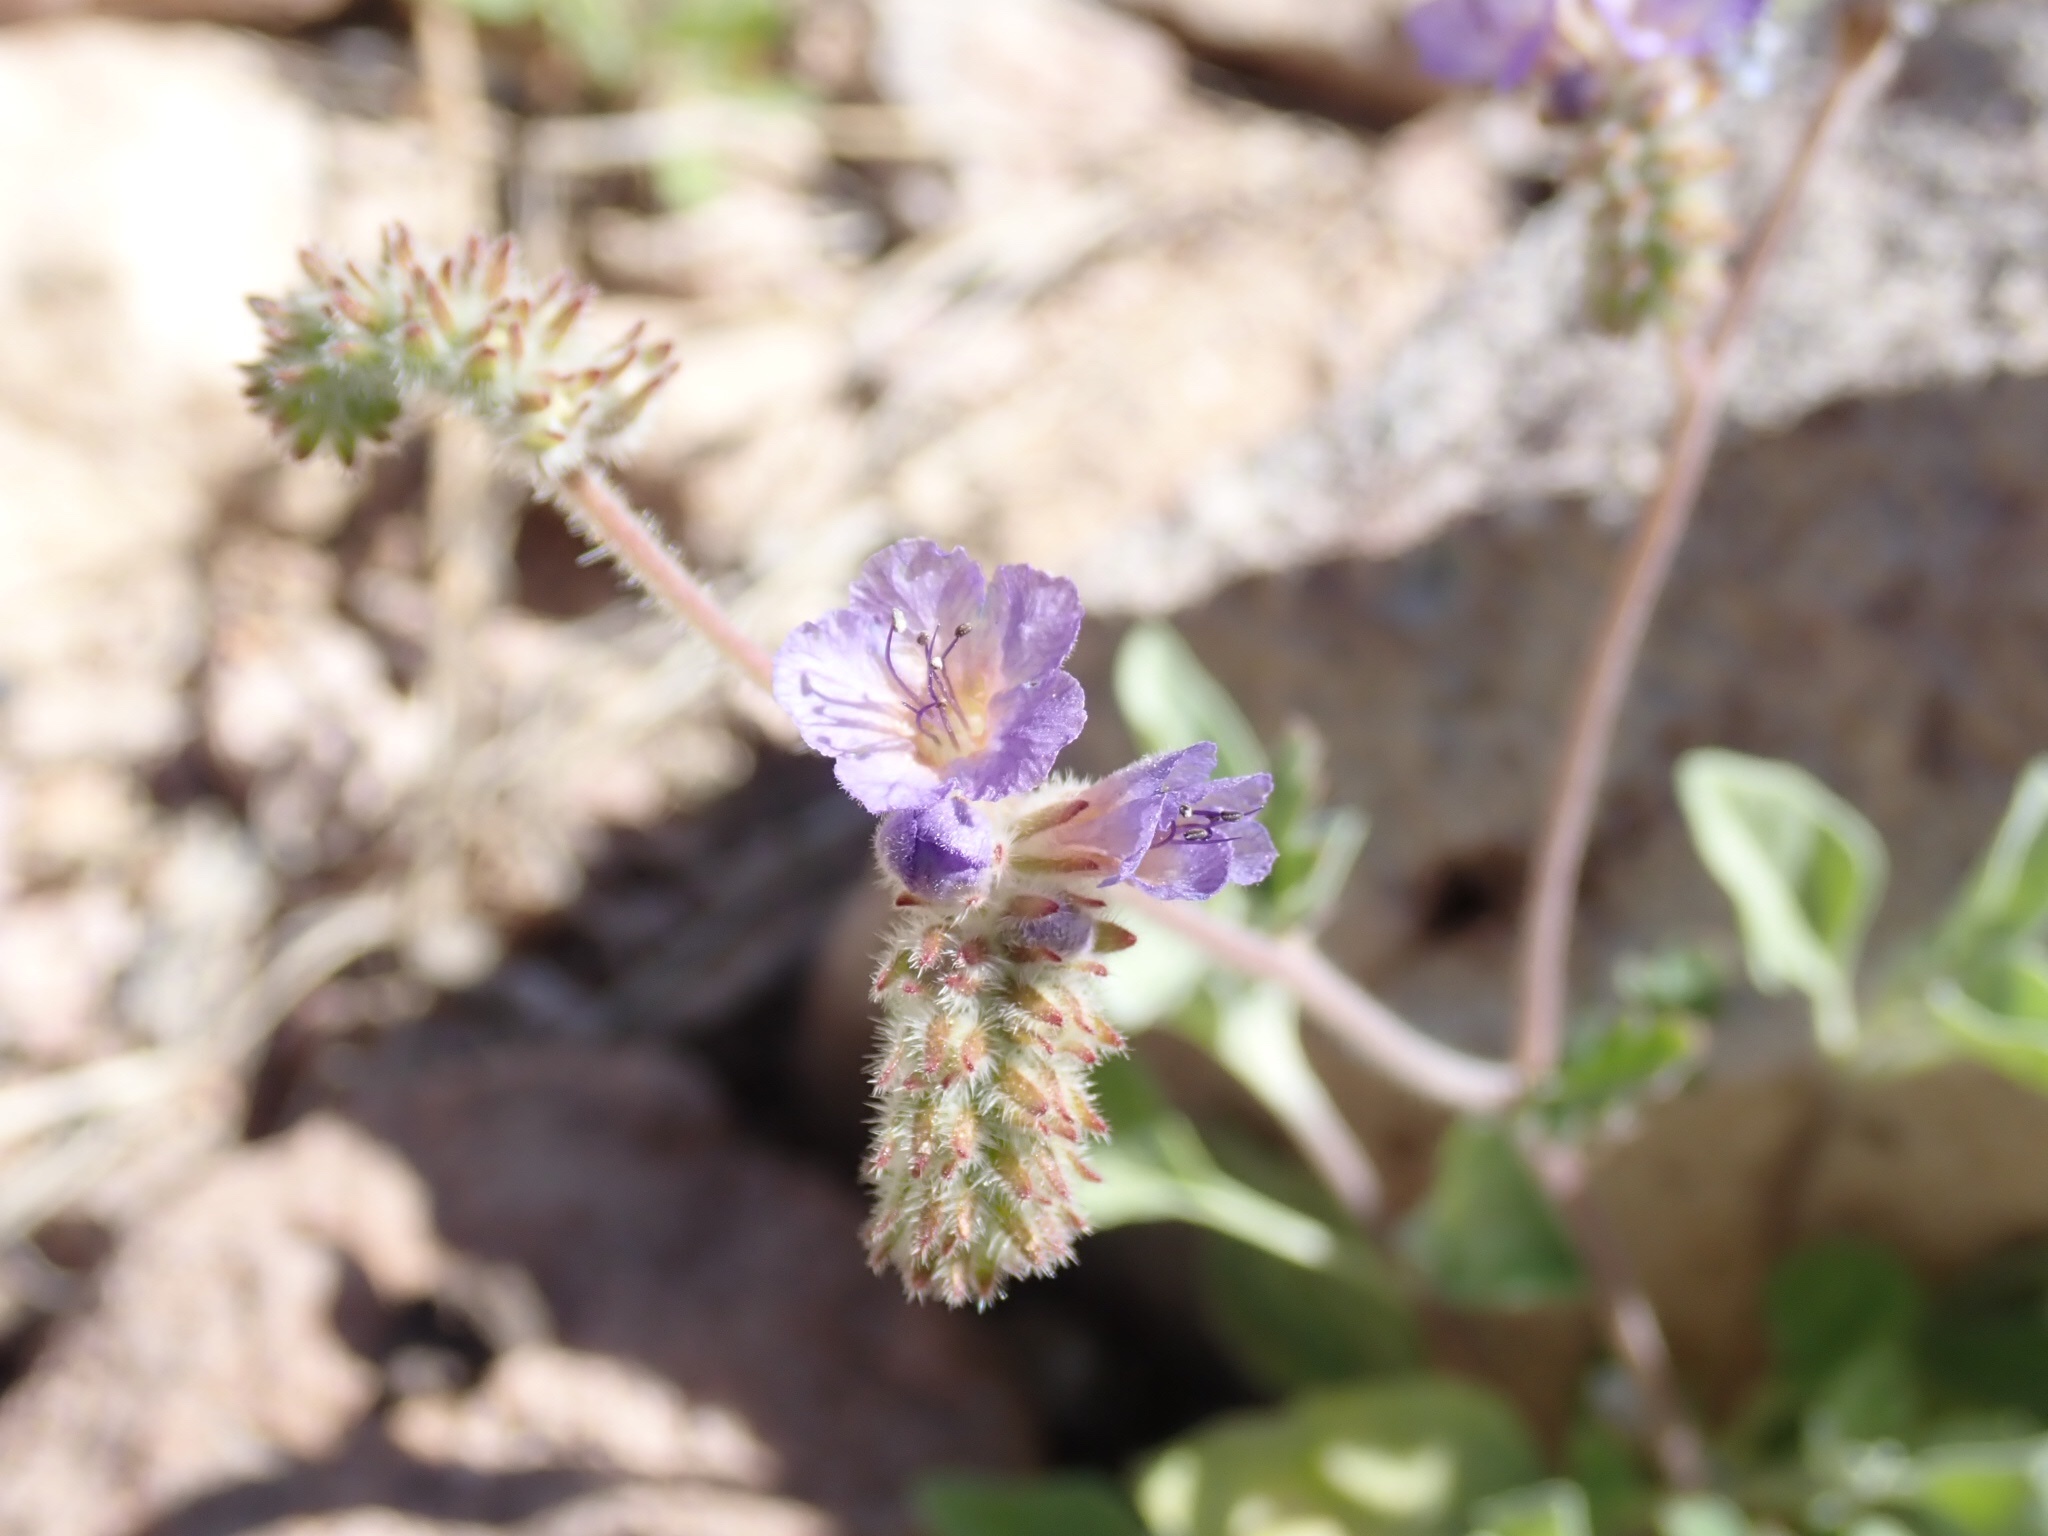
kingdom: Plantae
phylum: Tracheophyta
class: Magnoliopsida
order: Boraginales
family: Hydrophyllaceae
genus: Phacelia
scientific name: Phacelia distans
